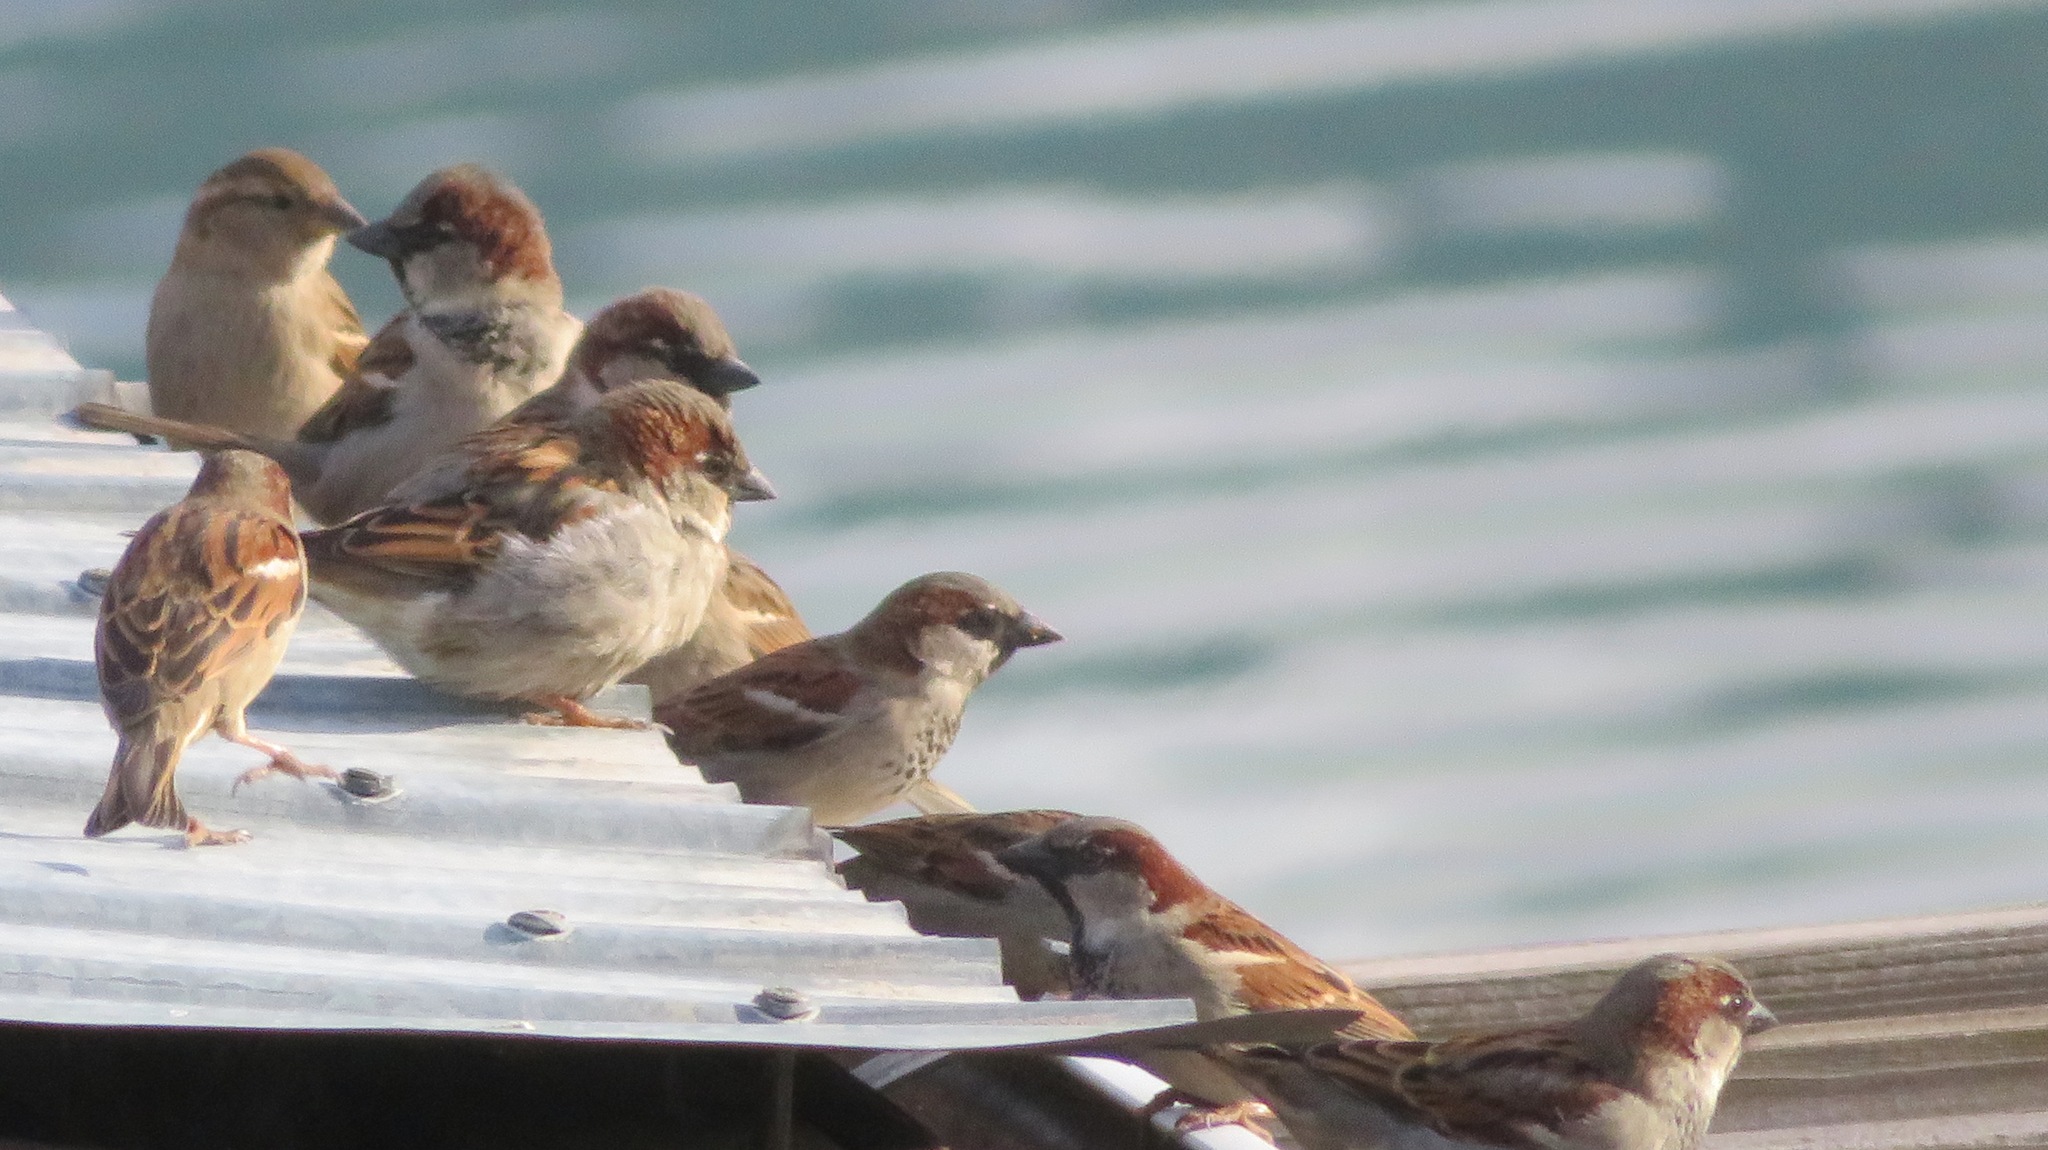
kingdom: Animalia
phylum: Chordata
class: Aves
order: Passeriformes
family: Passeridae
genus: Passer
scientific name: Passer domesticus
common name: House sparrow
